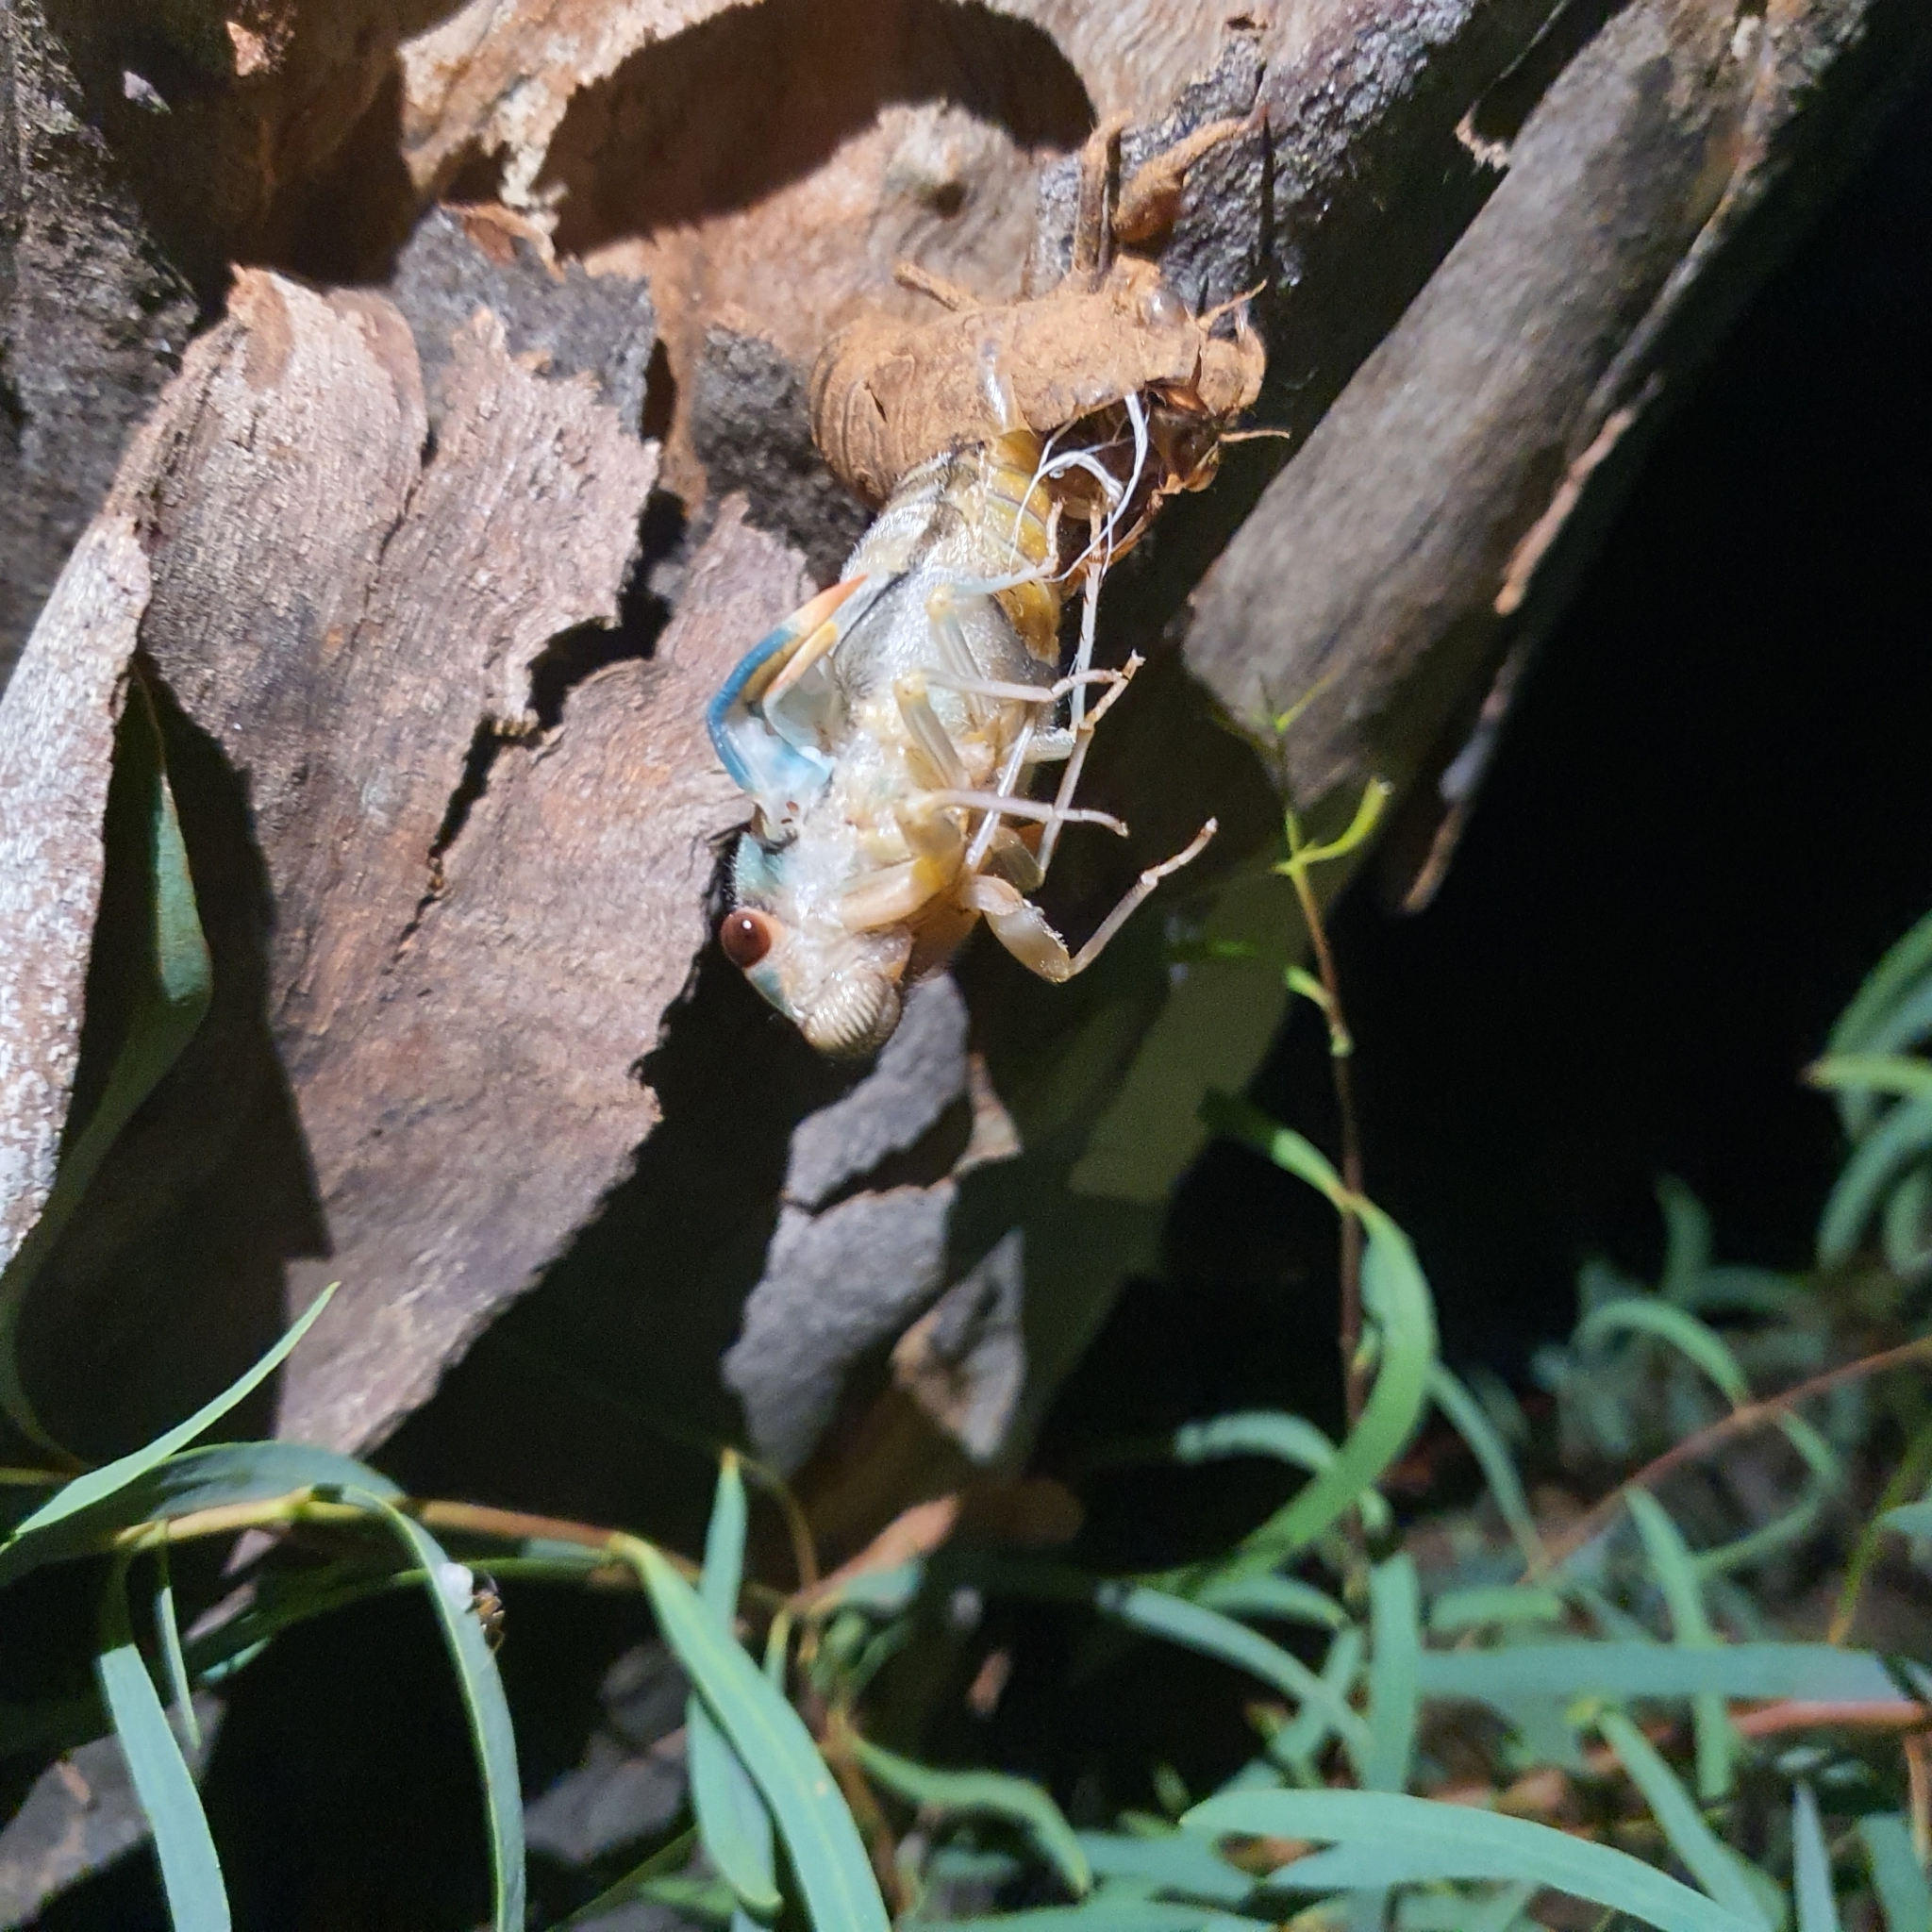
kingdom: Animalia
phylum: Arthropoda
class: Insecta
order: Hemiptera
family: Cicadidae
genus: Psaltoda
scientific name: Psaltoda moerens
